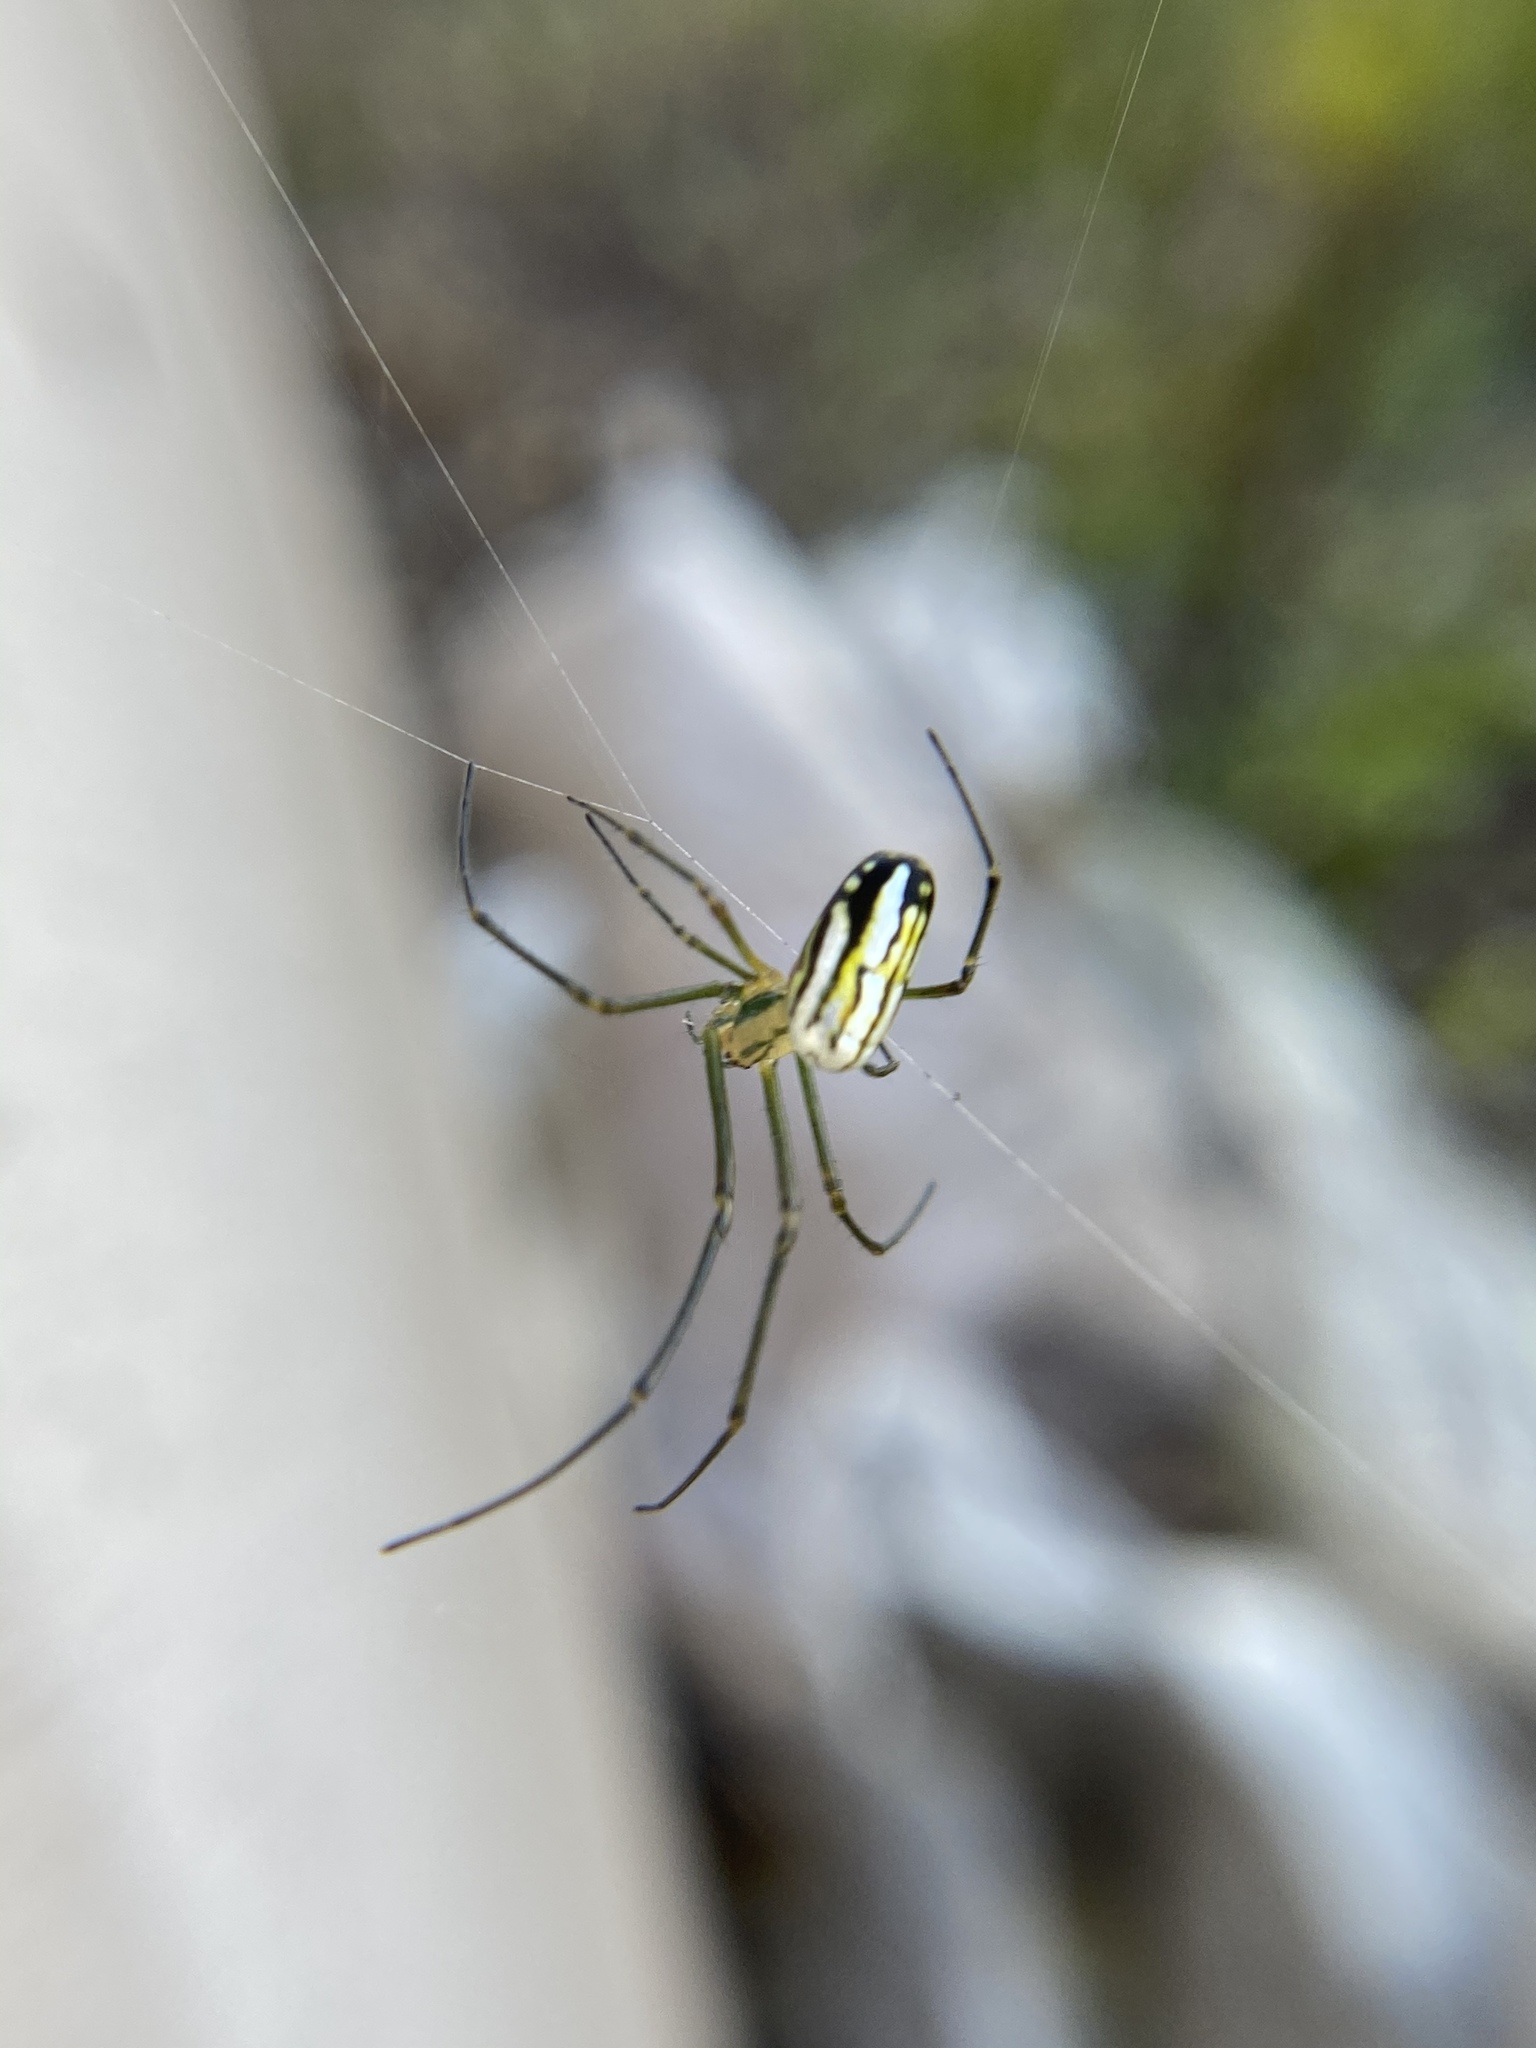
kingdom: Animalia
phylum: Arthropoda
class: Arachnida
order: Araneae
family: Tetragnathidae
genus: Leucauge
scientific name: Leucauge argyra
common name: Longjawed orb weavers
